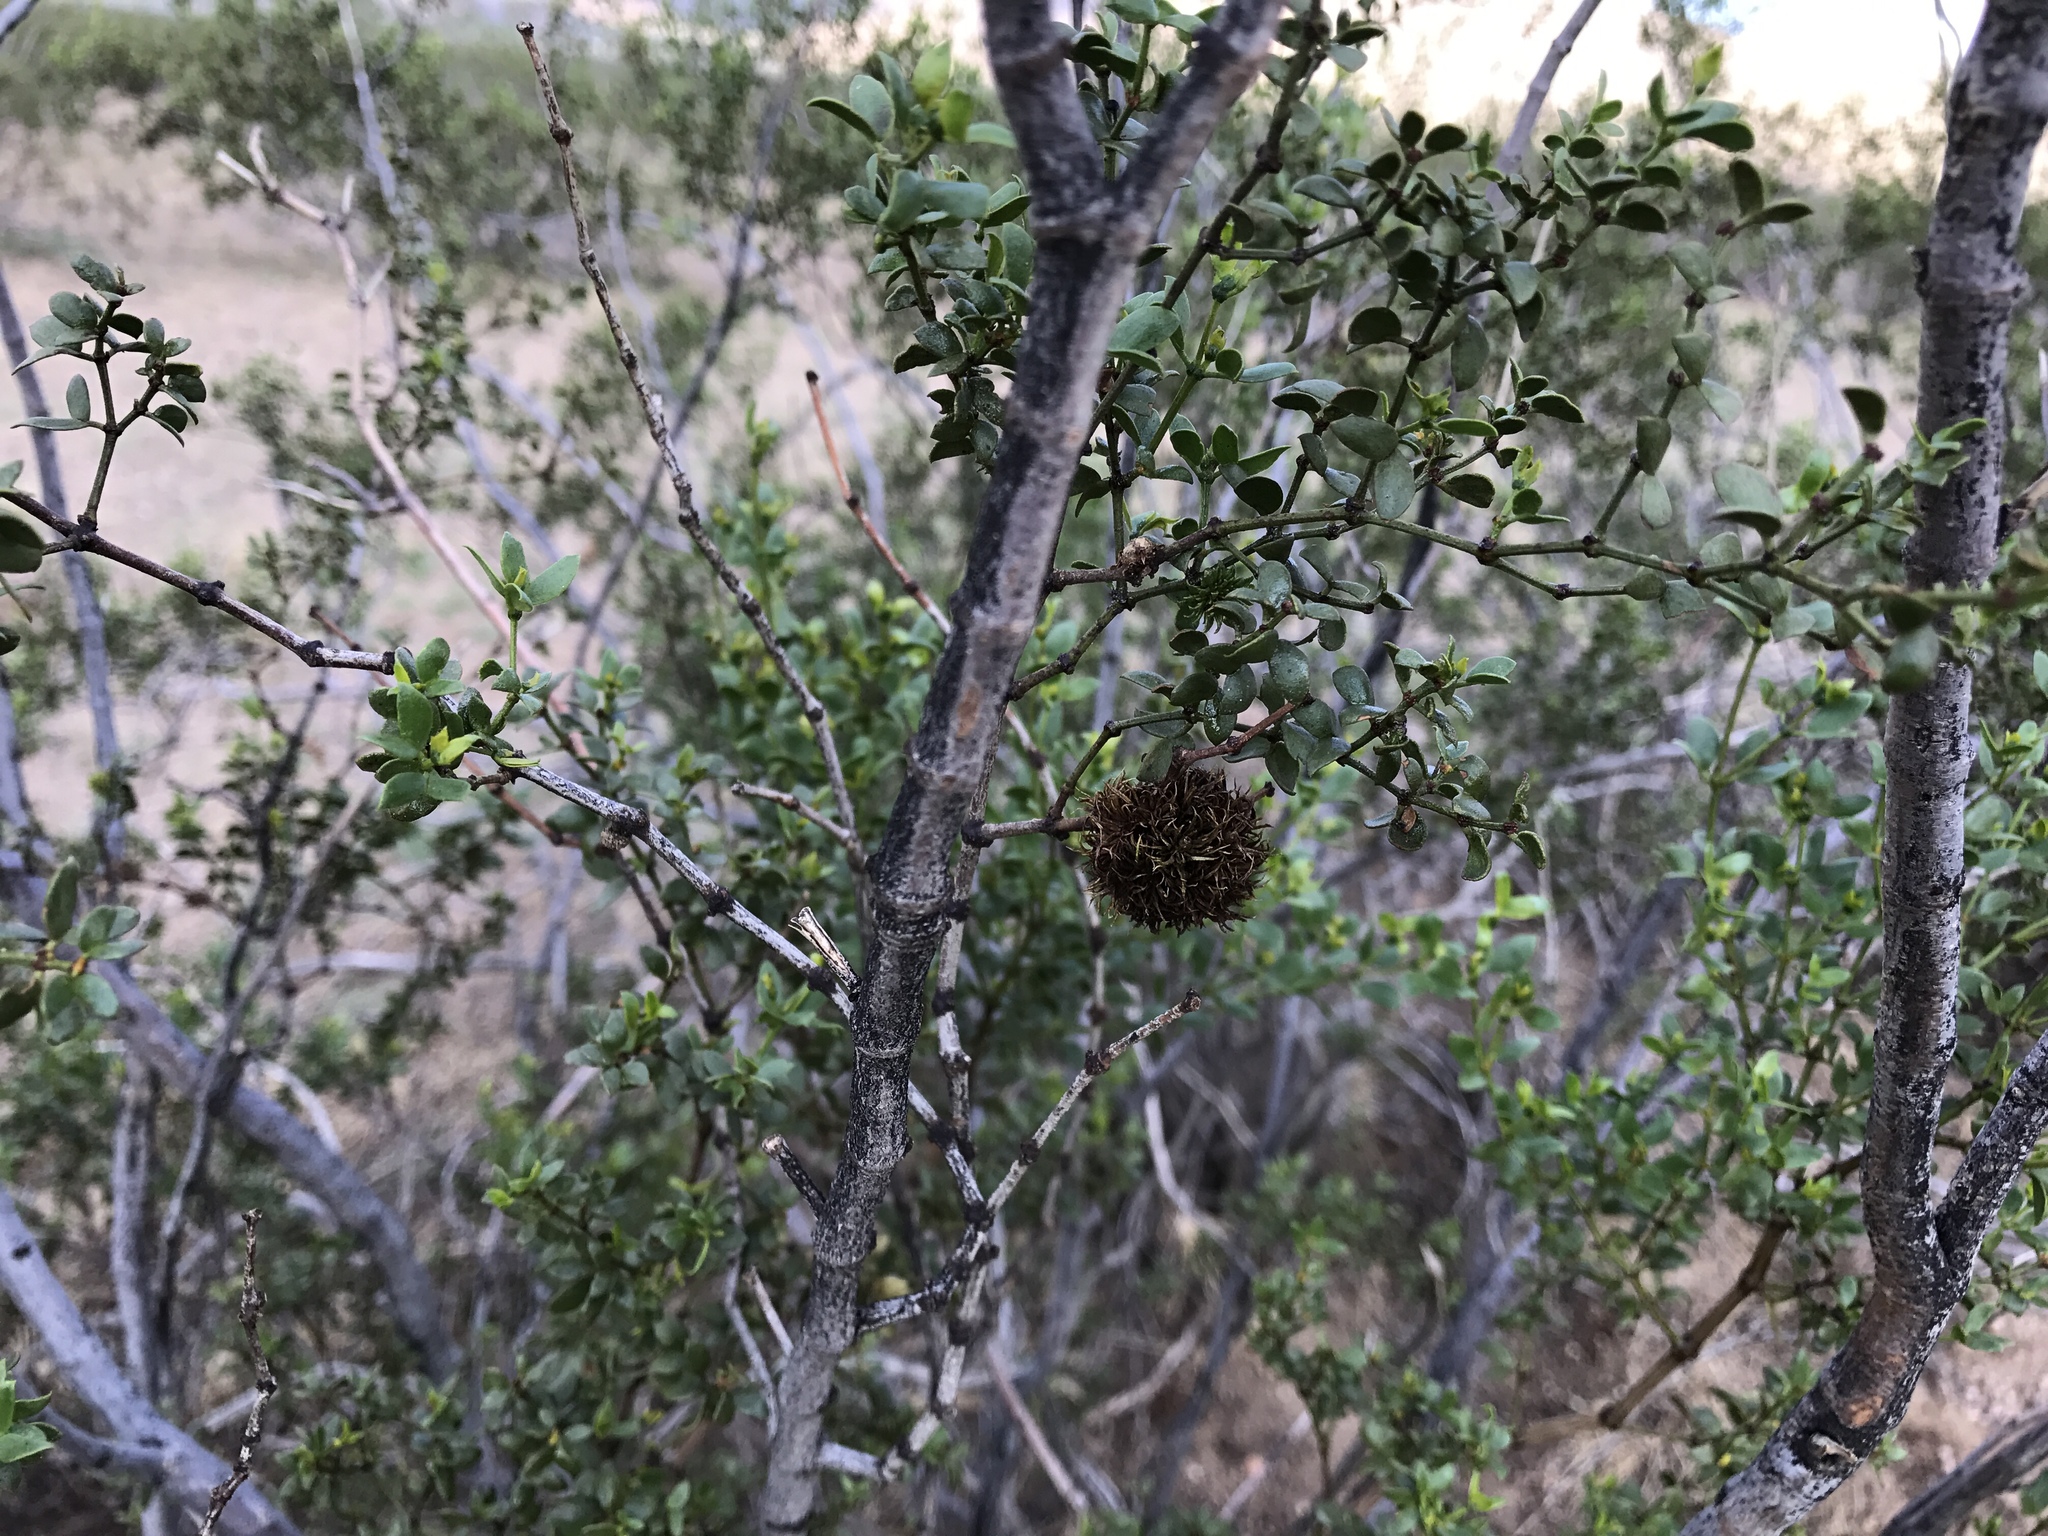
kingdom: Animalia
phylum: Arthropoda
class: Insecta
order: Diptera
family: Cecidomyiidae
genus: Asphondylia
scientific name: Asphondylia auripila
